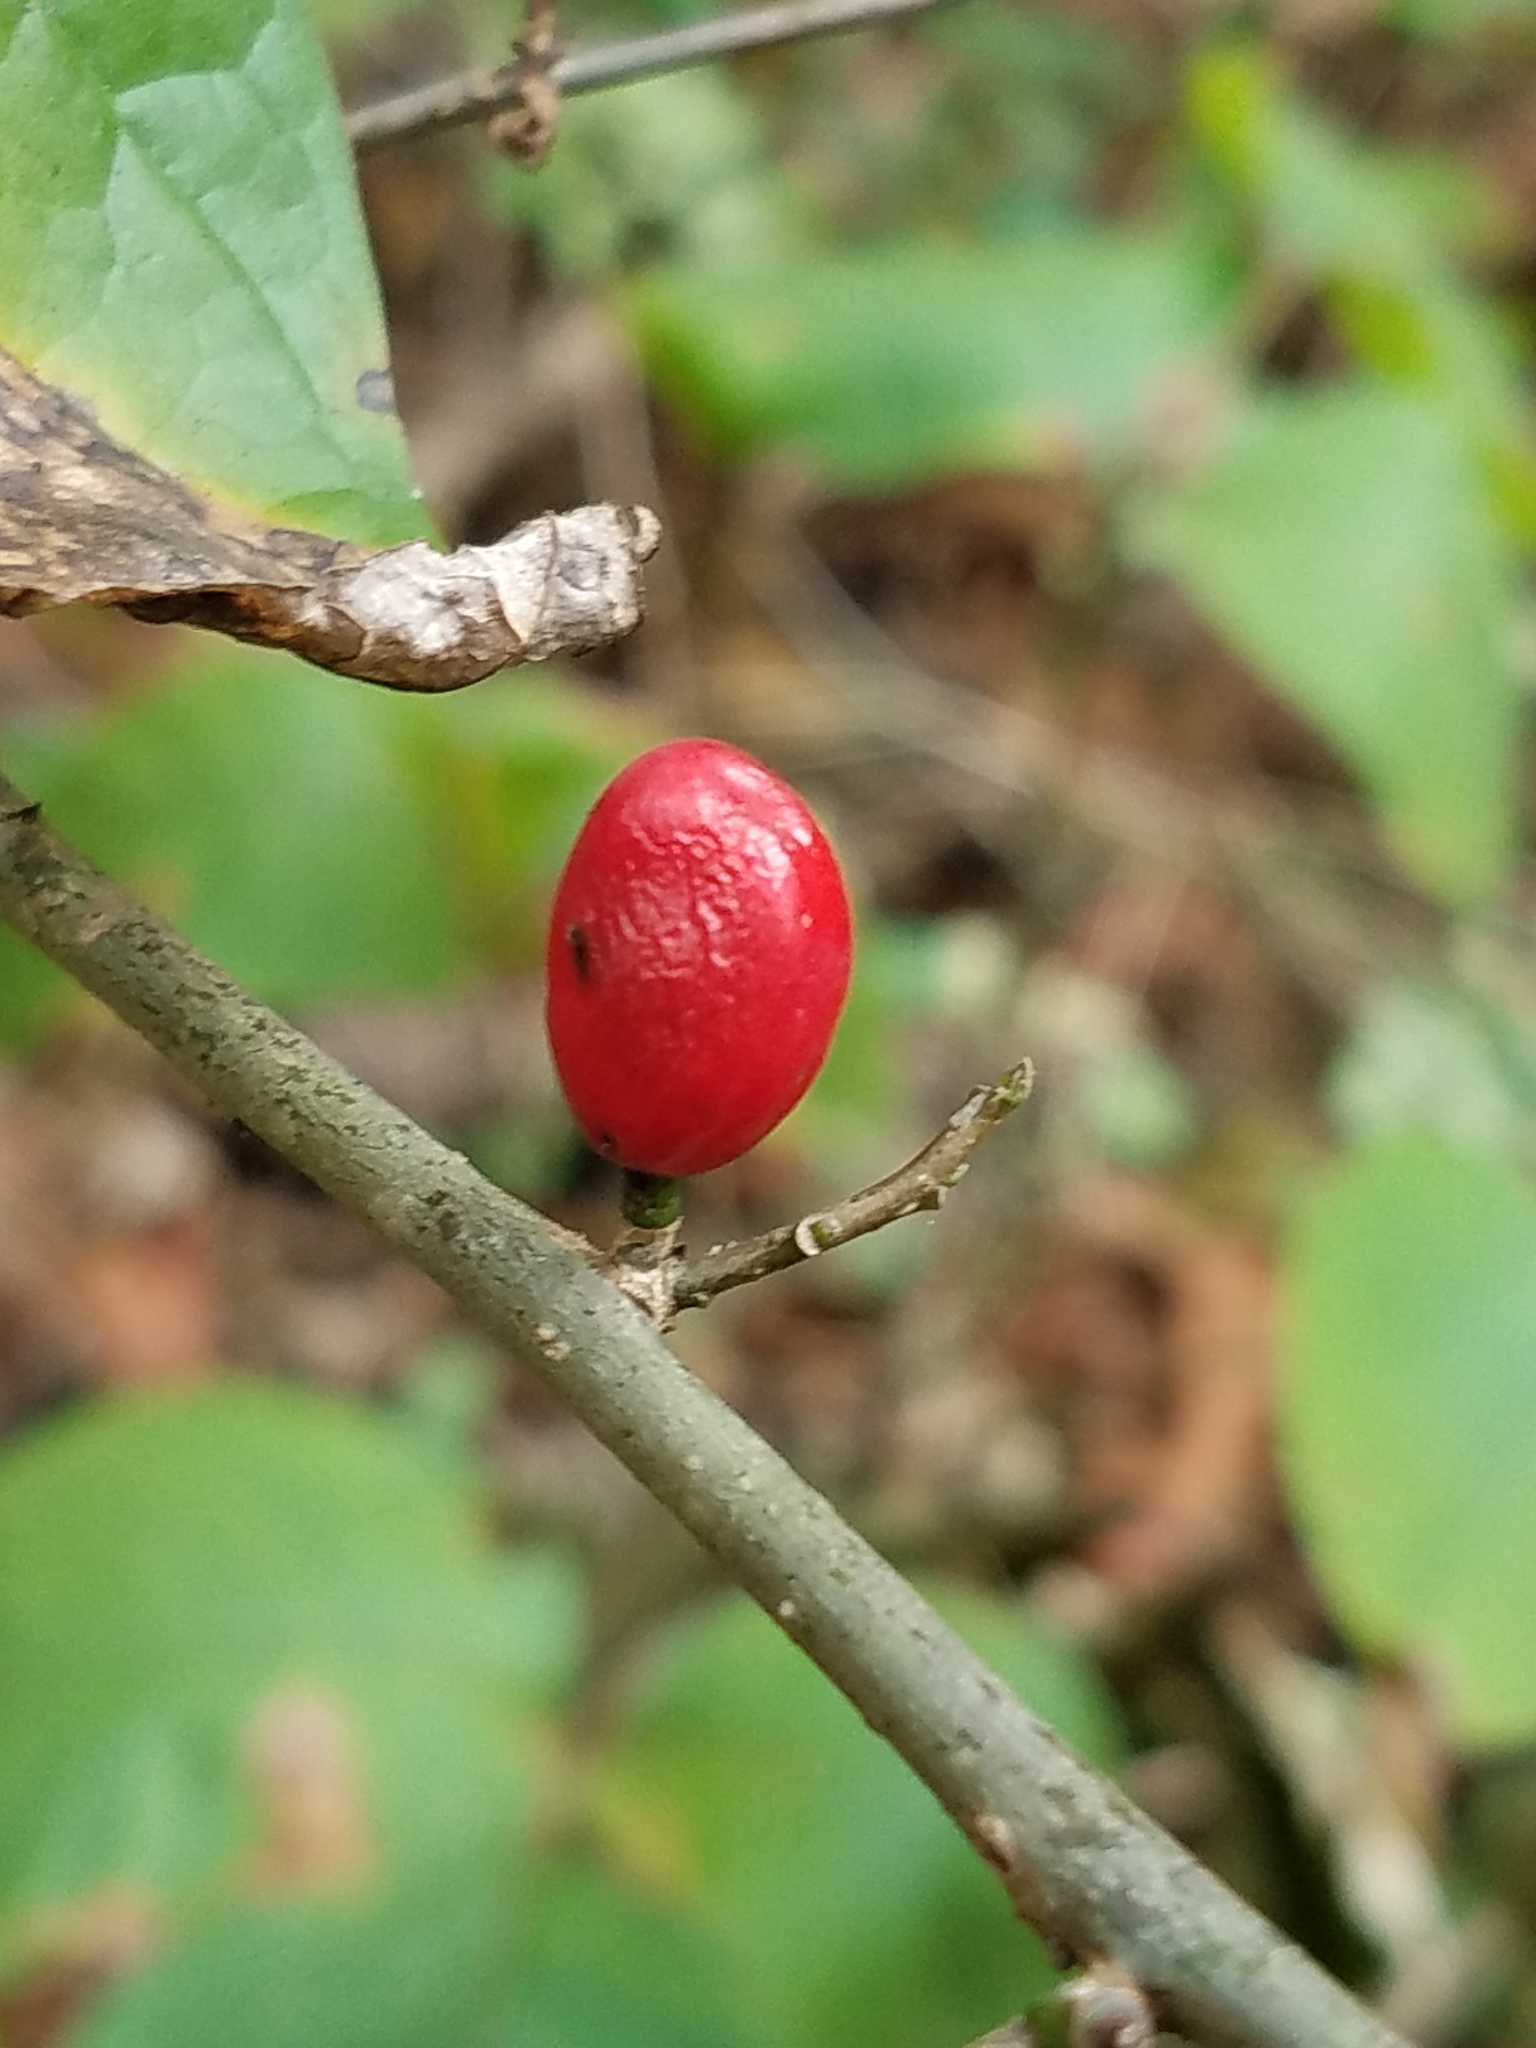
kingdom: Plantae
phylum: Tracheophyta
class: Magnoliopsida
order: Laurales
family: Lauraceae
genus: Lindera
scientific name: Lindera benzoin
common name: Spicebush
